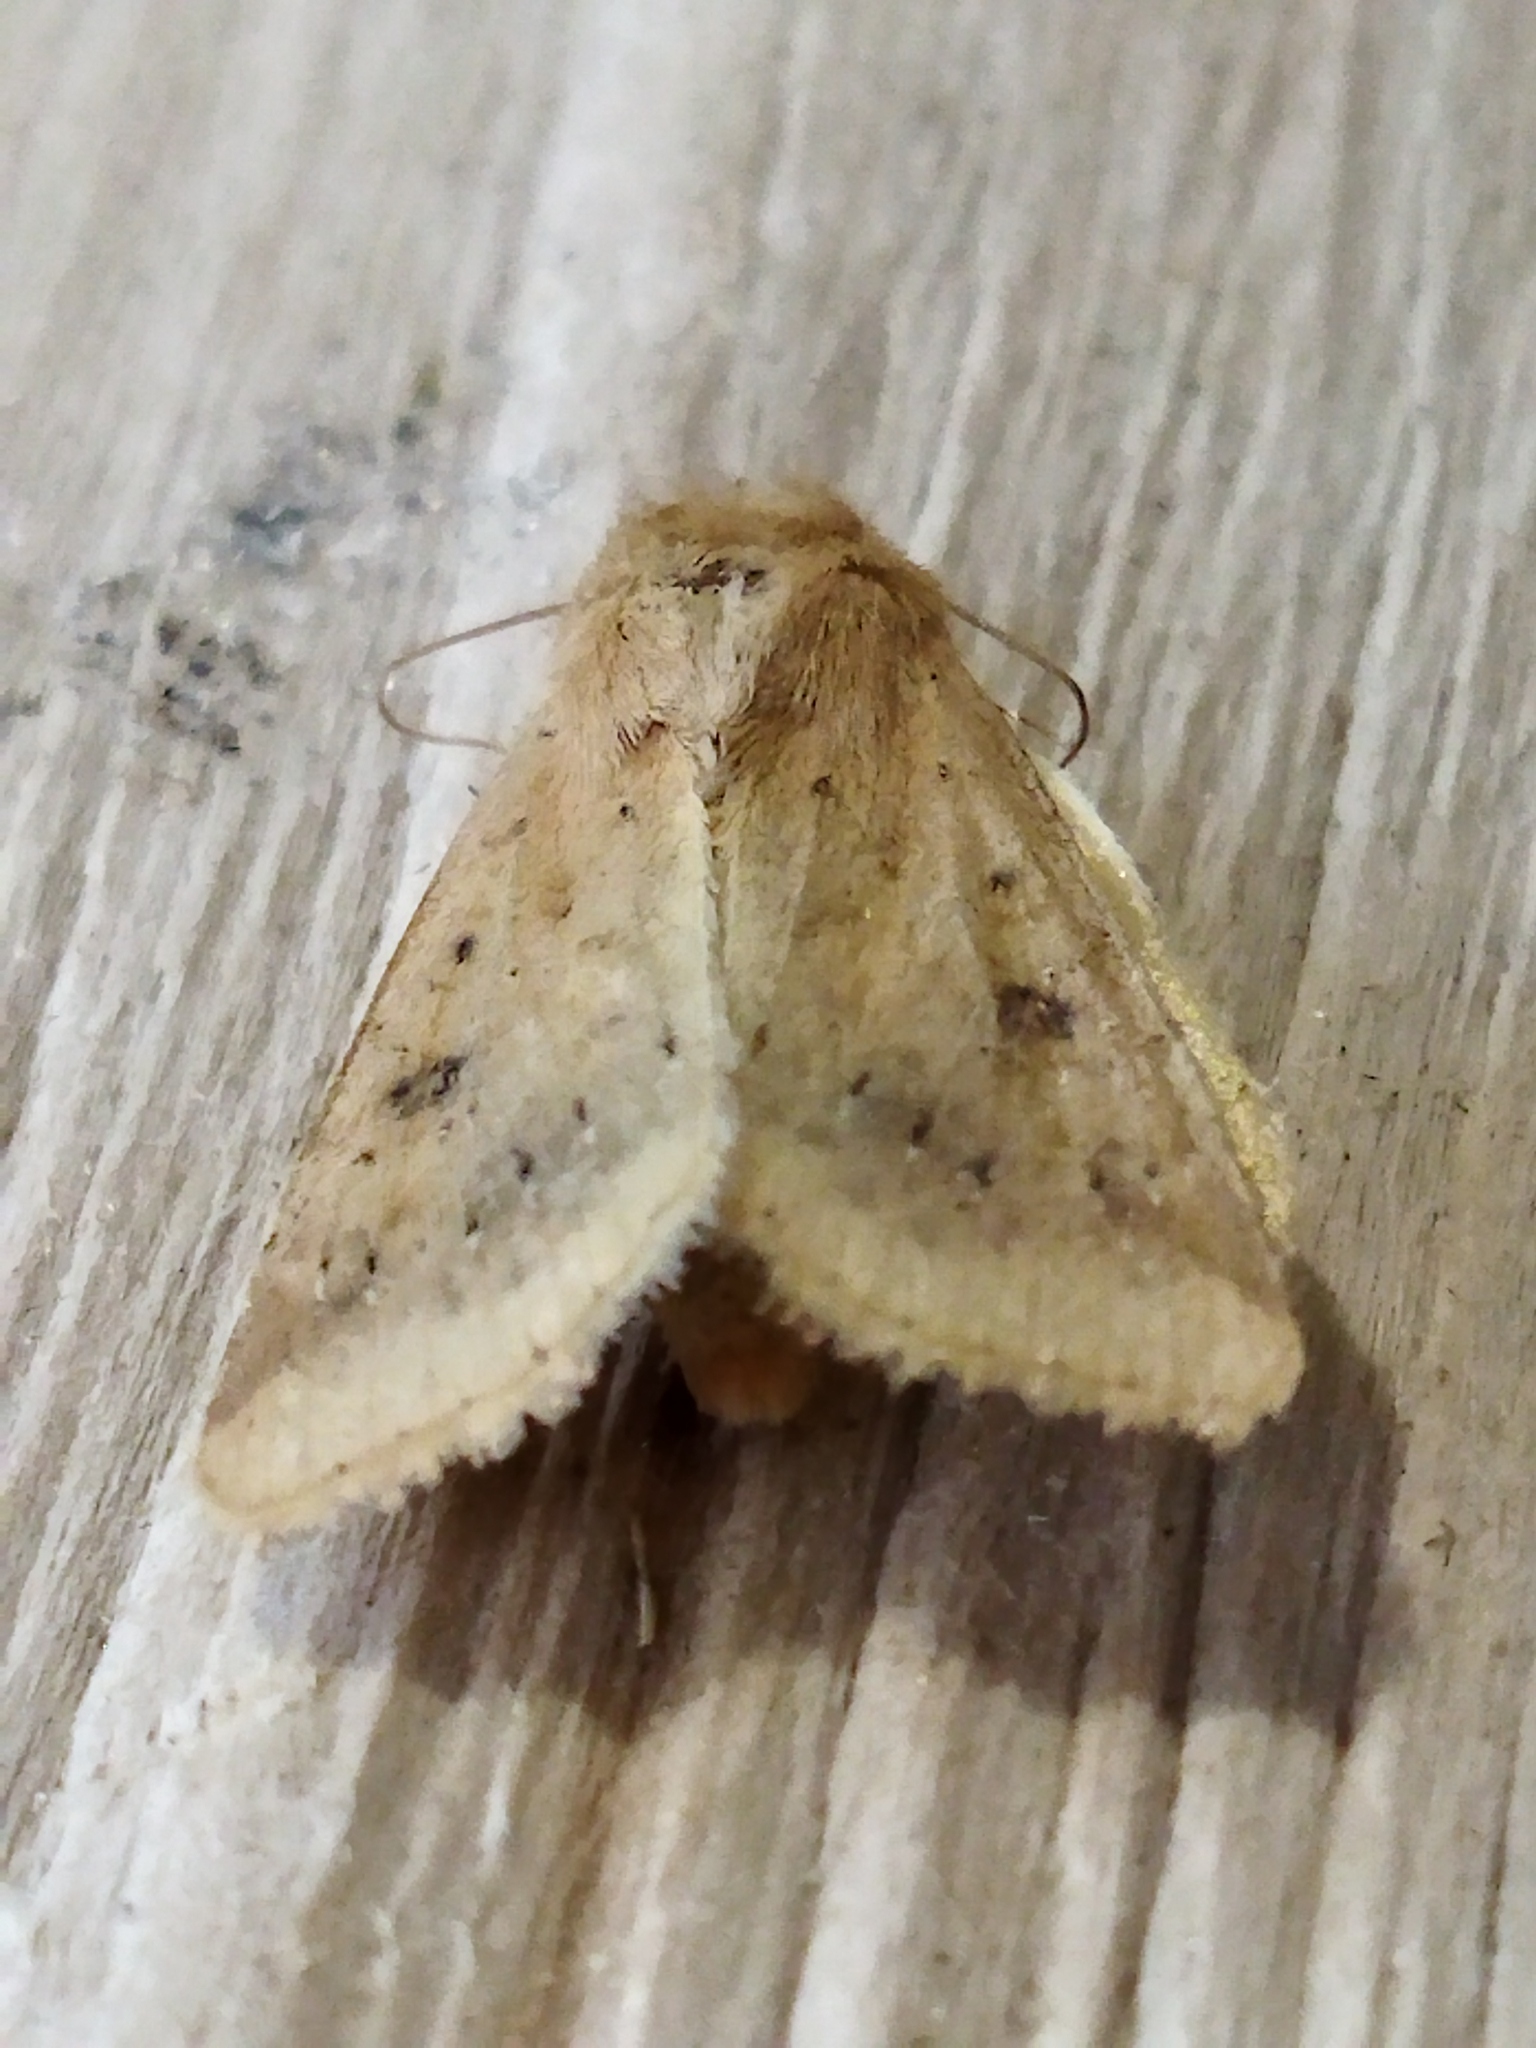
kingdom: Animalia
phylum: Arthropoda
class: Insecta
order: Lepidoptera
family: Noctuidae
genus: Helicoverpa
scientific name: Helicoverpa armigera
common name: Cotton bollworm
